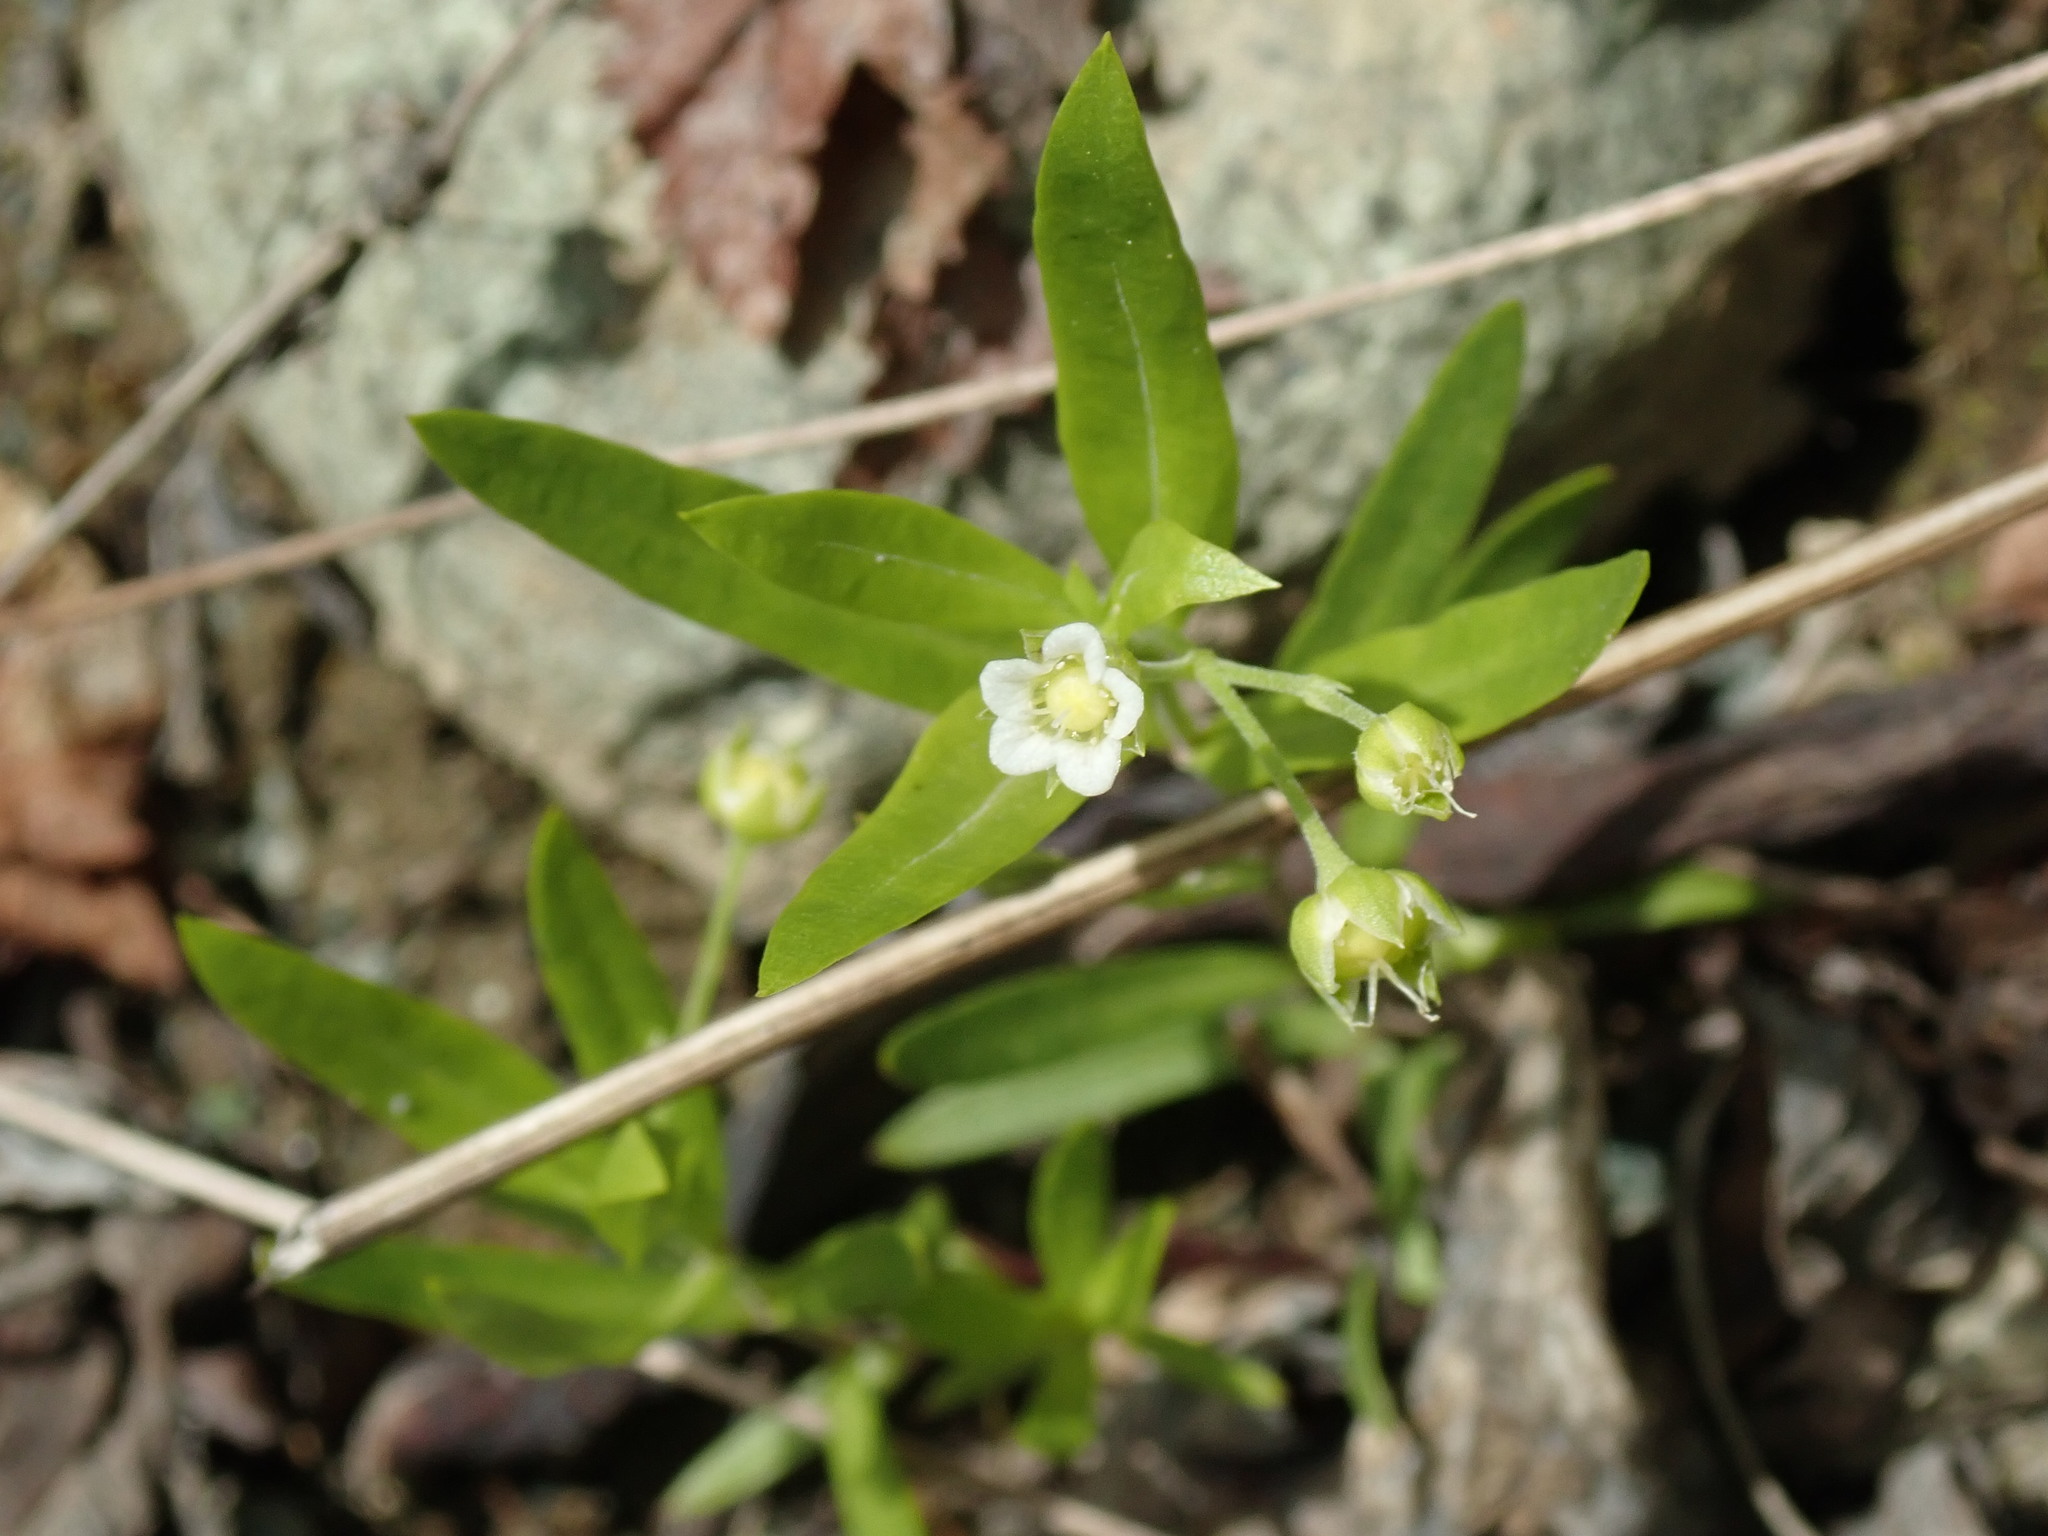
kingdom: Plantae
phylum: Tracheophyta
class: Magnoliopsida
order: Caryophyllales
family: Caryophyllaceae
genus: Moehringia
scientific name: Moehringia macrophylla
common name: Big-leaf sandwort
